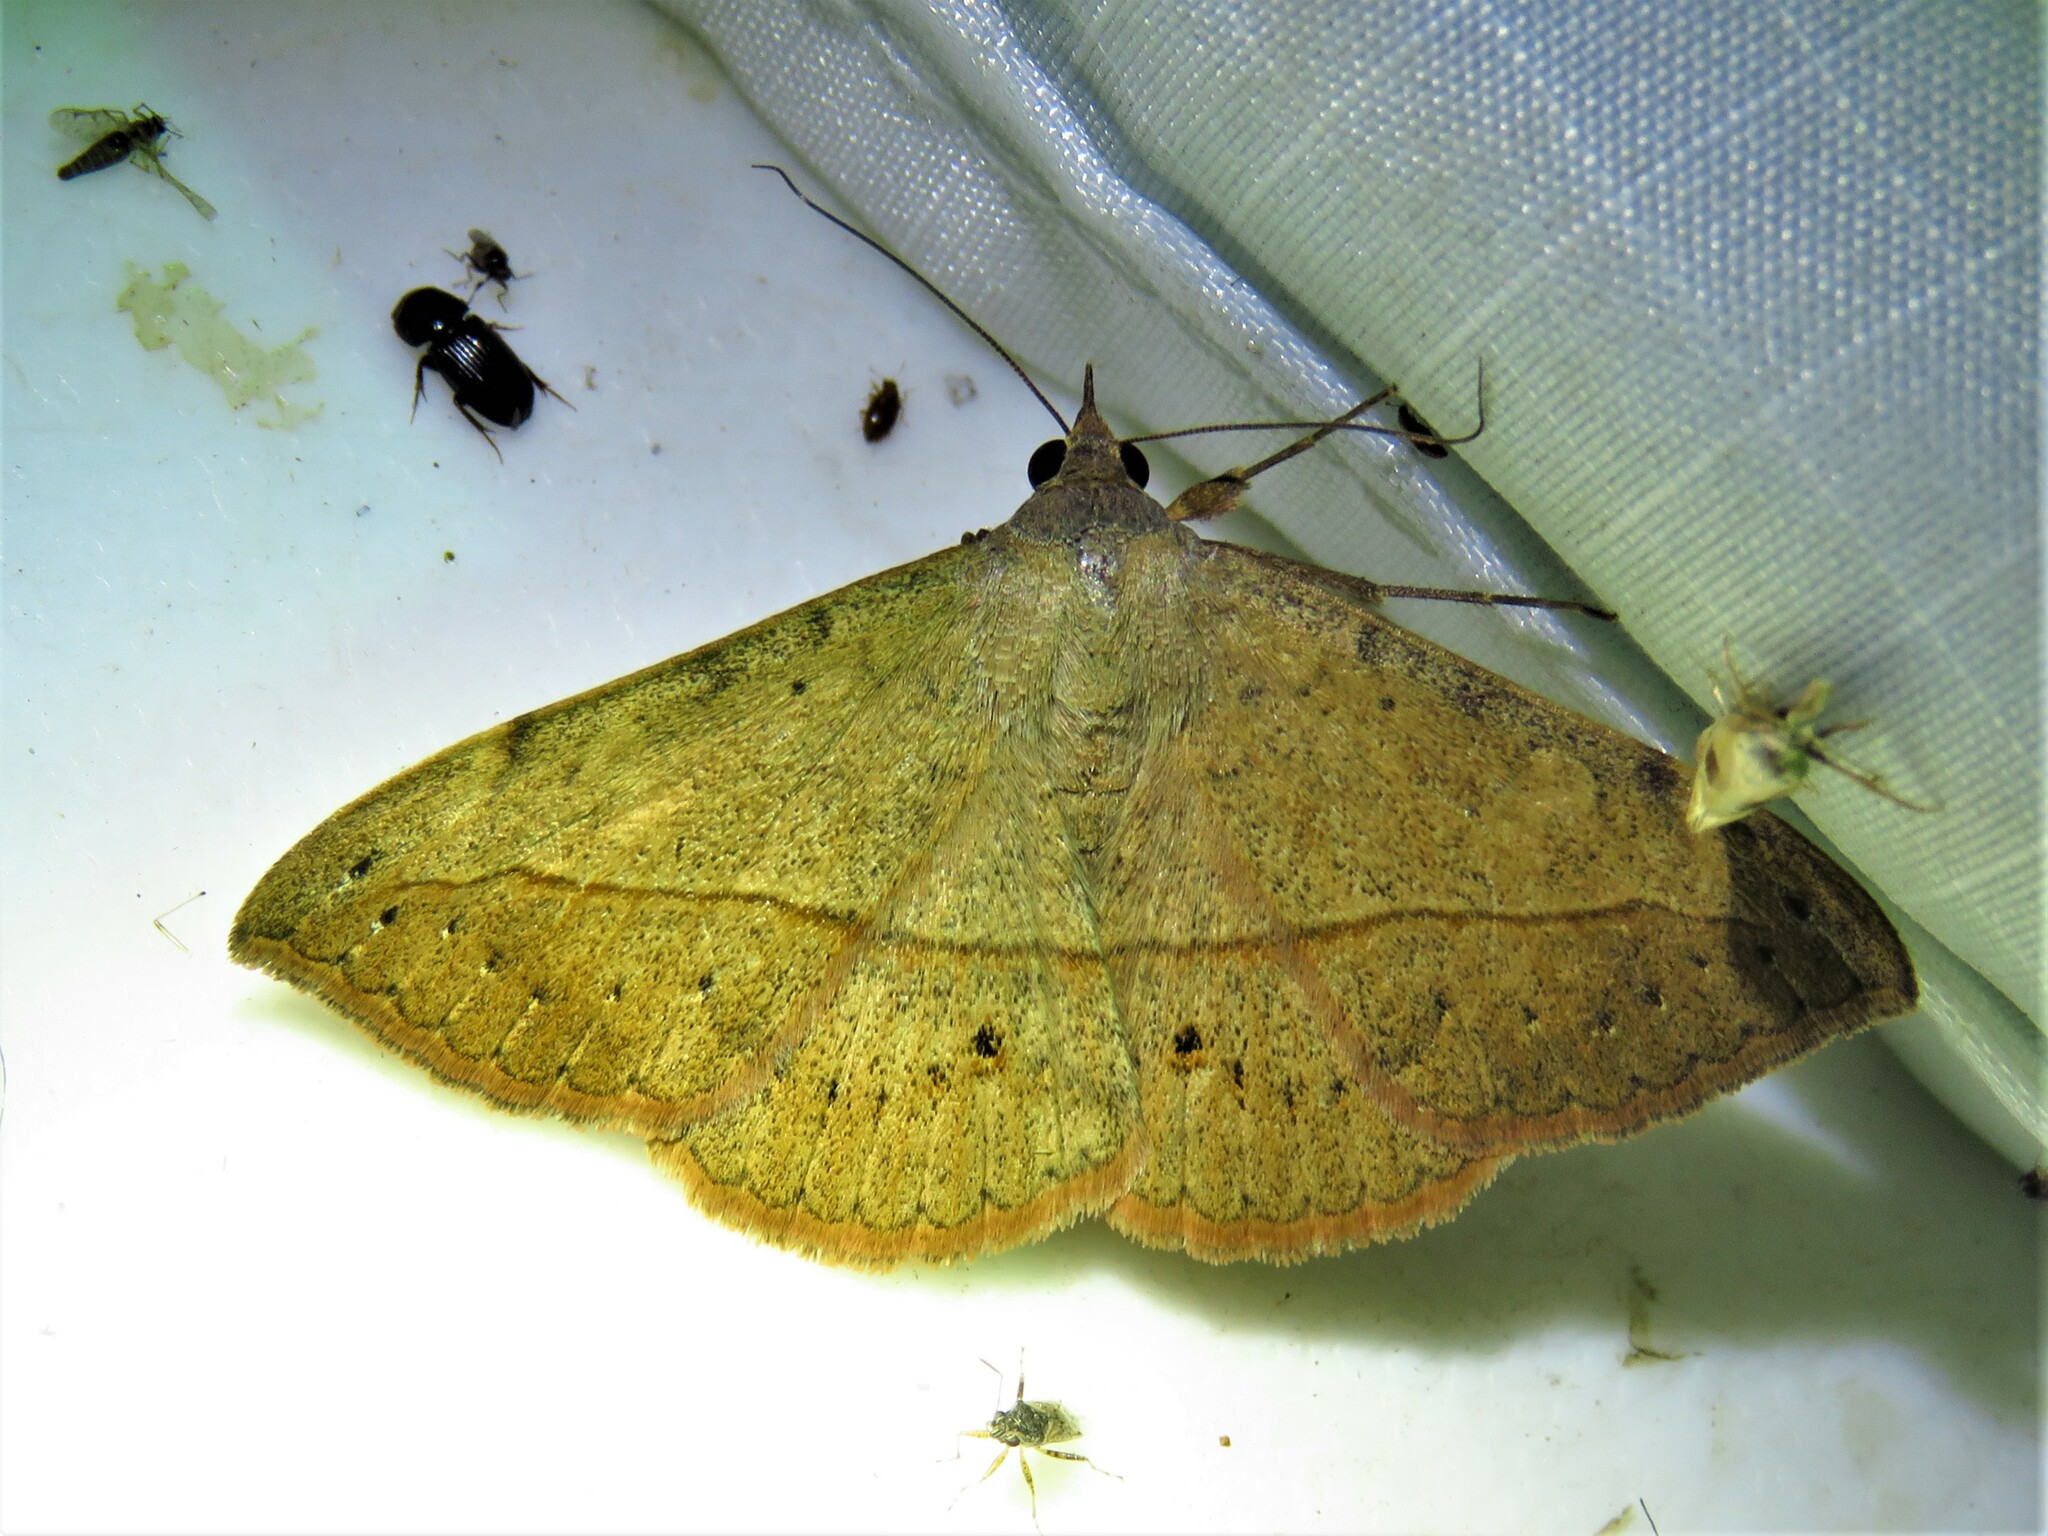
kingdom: Animalia
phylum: Arthropoda
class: Insecta
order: Lepidoptera
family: Erebidae
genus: Anticarsia
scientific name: Anticarsia gemmatalis
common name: Cutworm moth
